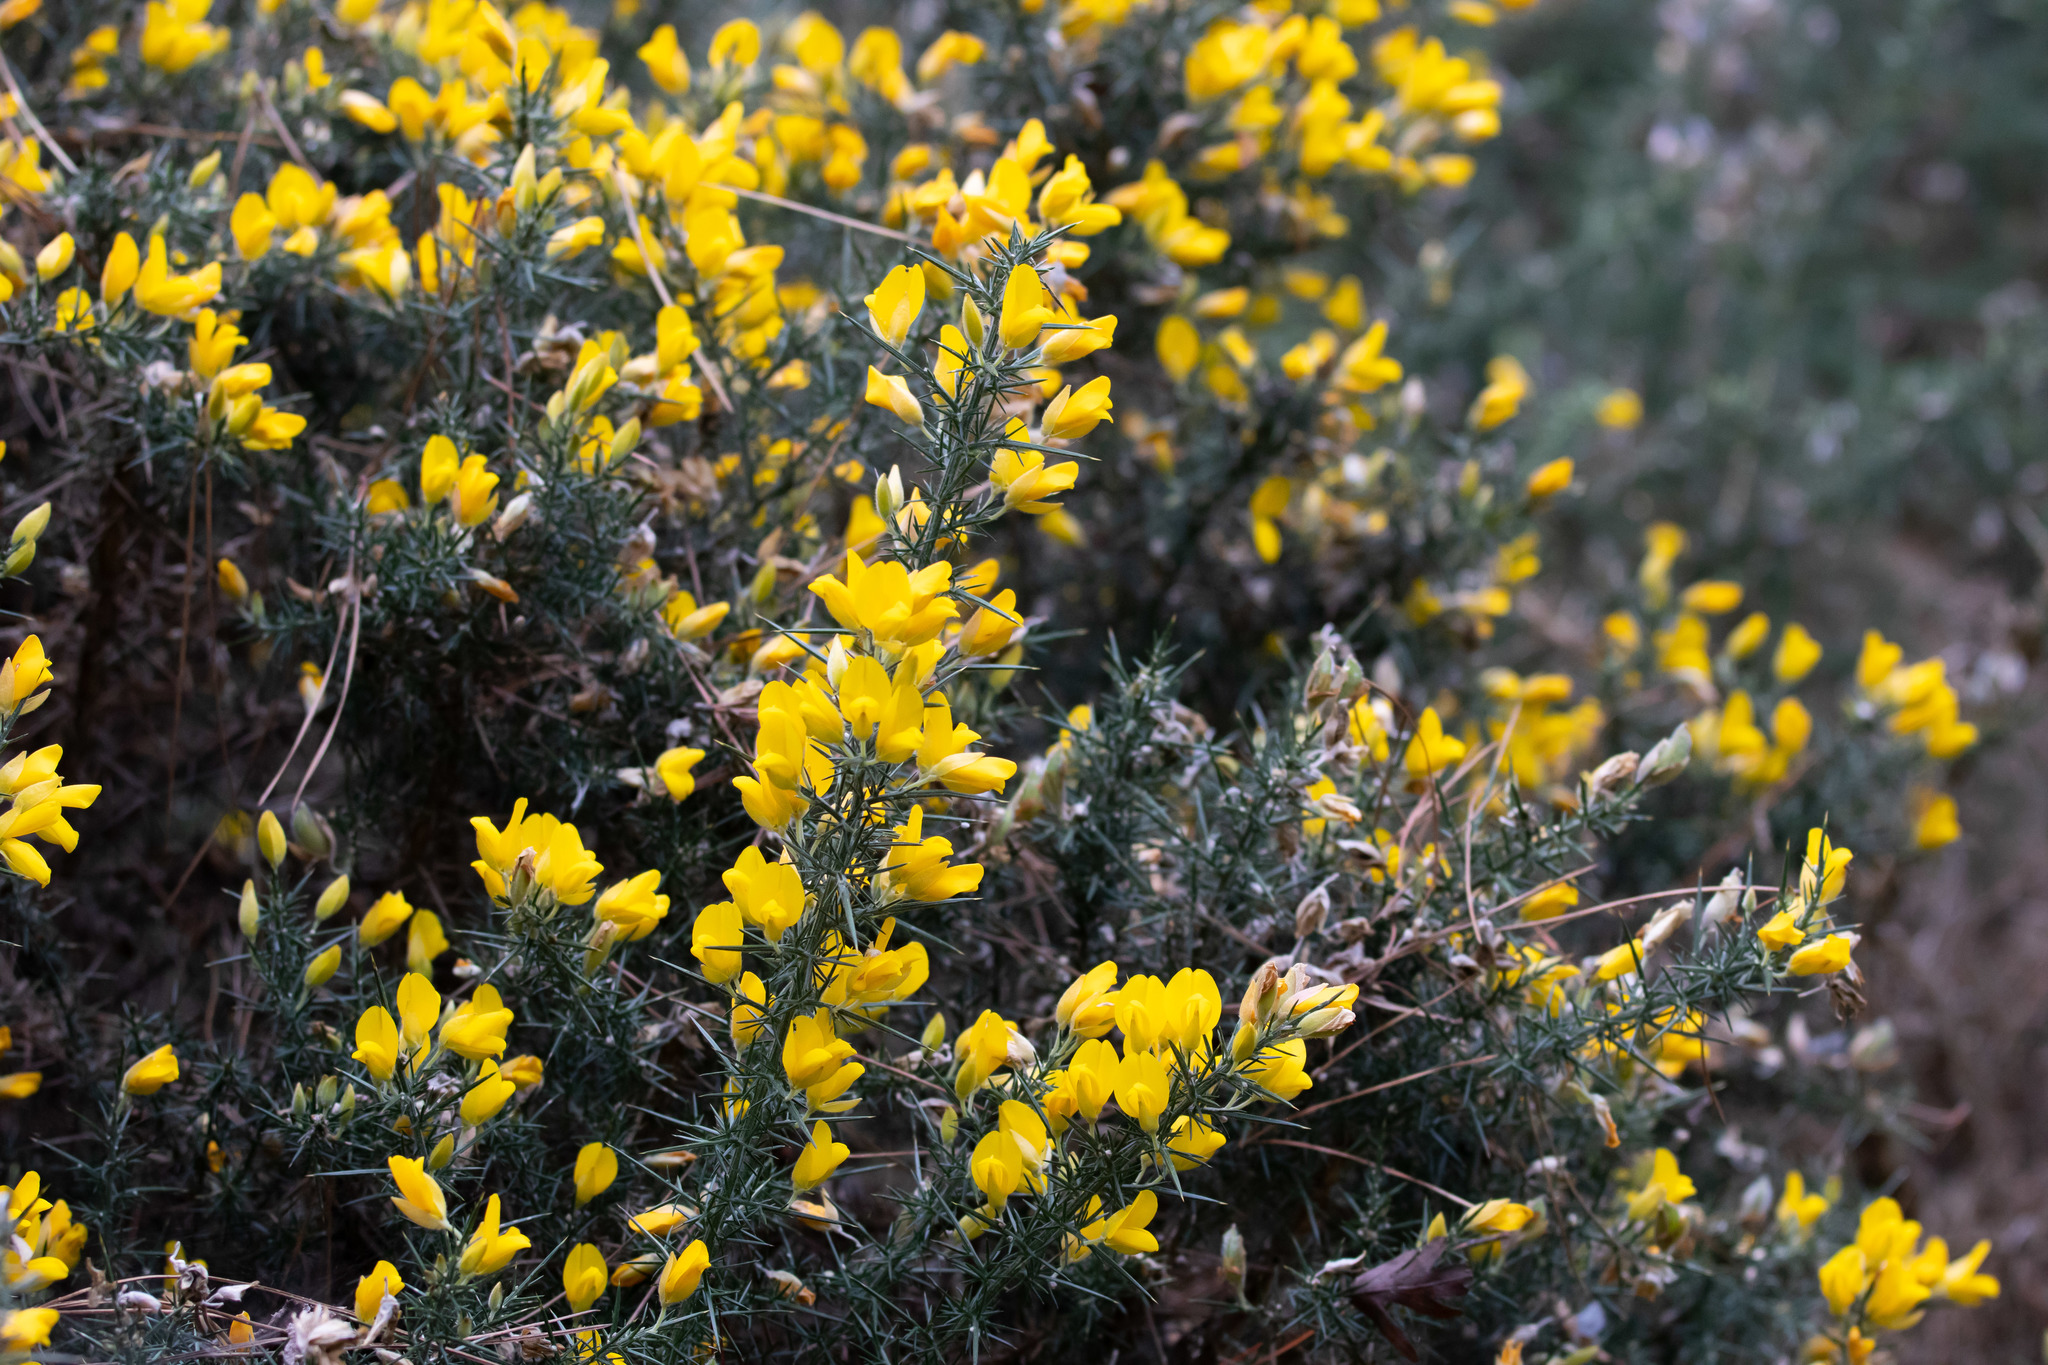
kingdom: Plantae
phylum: Tracheophyta
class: Magnoliopsida
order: Fabales
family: Fabaceae
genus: Ulex
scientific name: Ulex europaeus
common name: Common gorse
